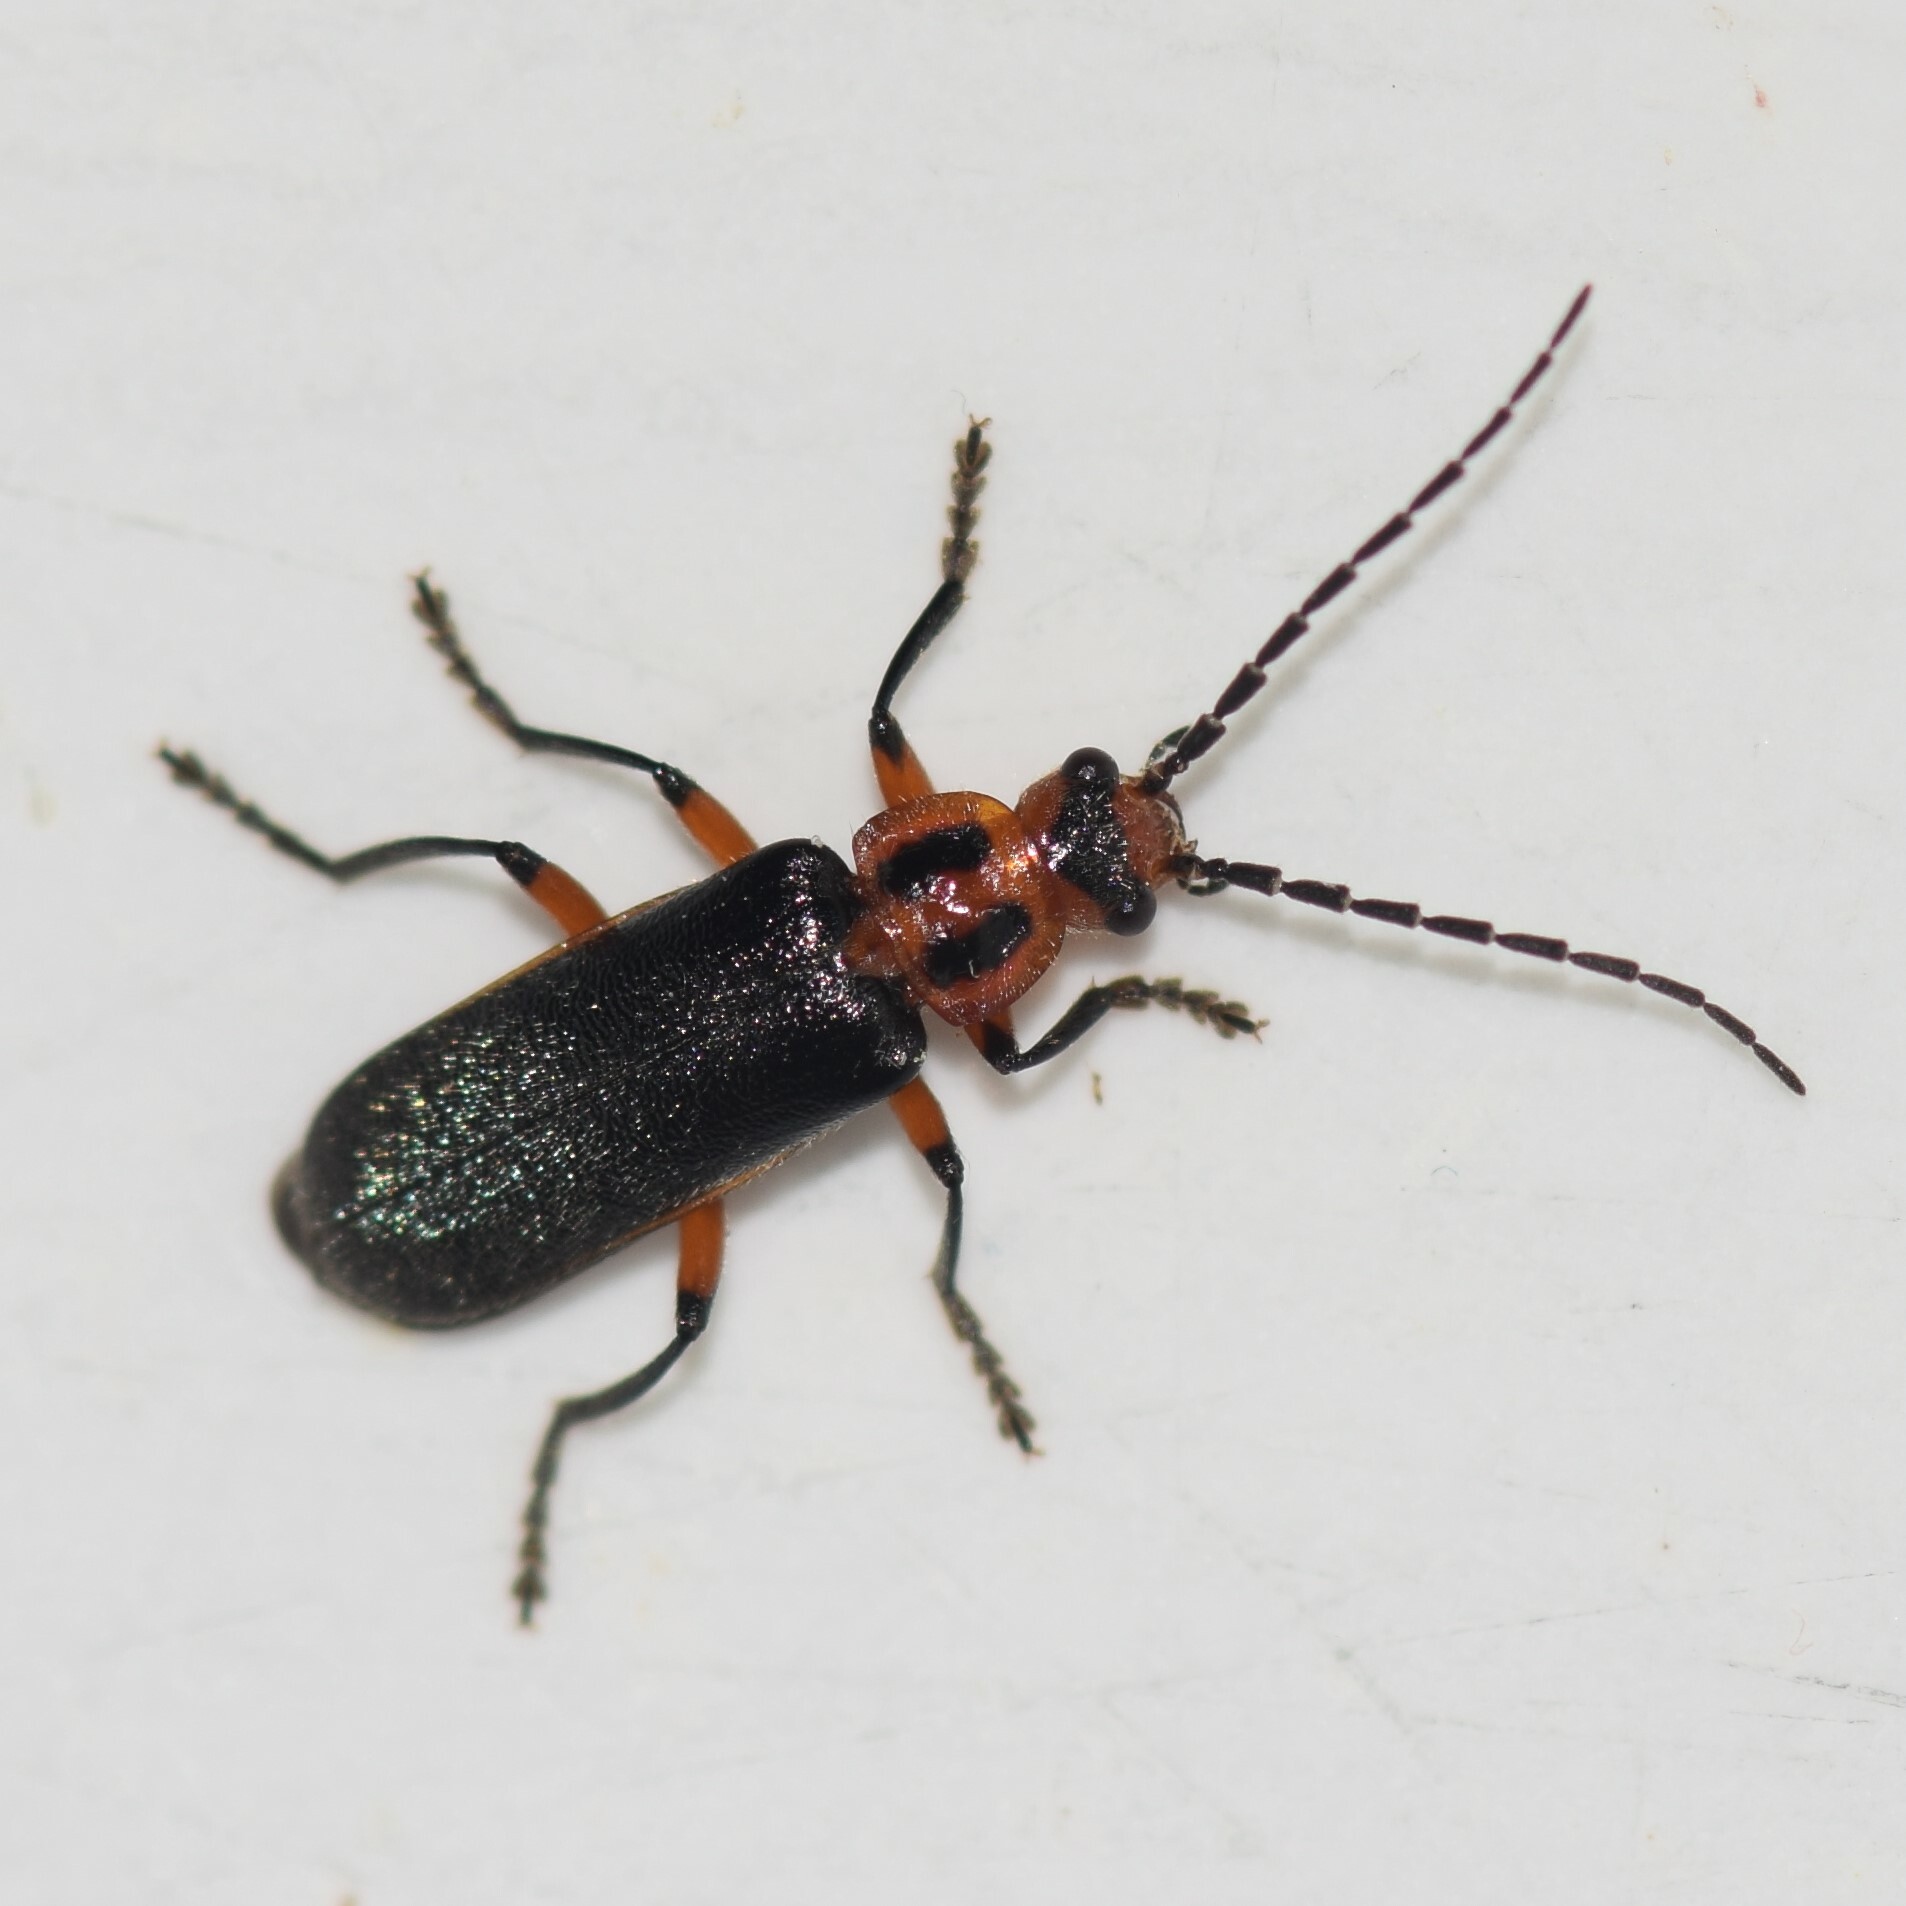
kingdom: Animalia
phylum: Arthropoda
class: Insecta
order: Coleoptera
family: Cantharidae
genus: Atalantycha
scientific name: Atalantycha bilineata
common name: Two-lined leatherwing
